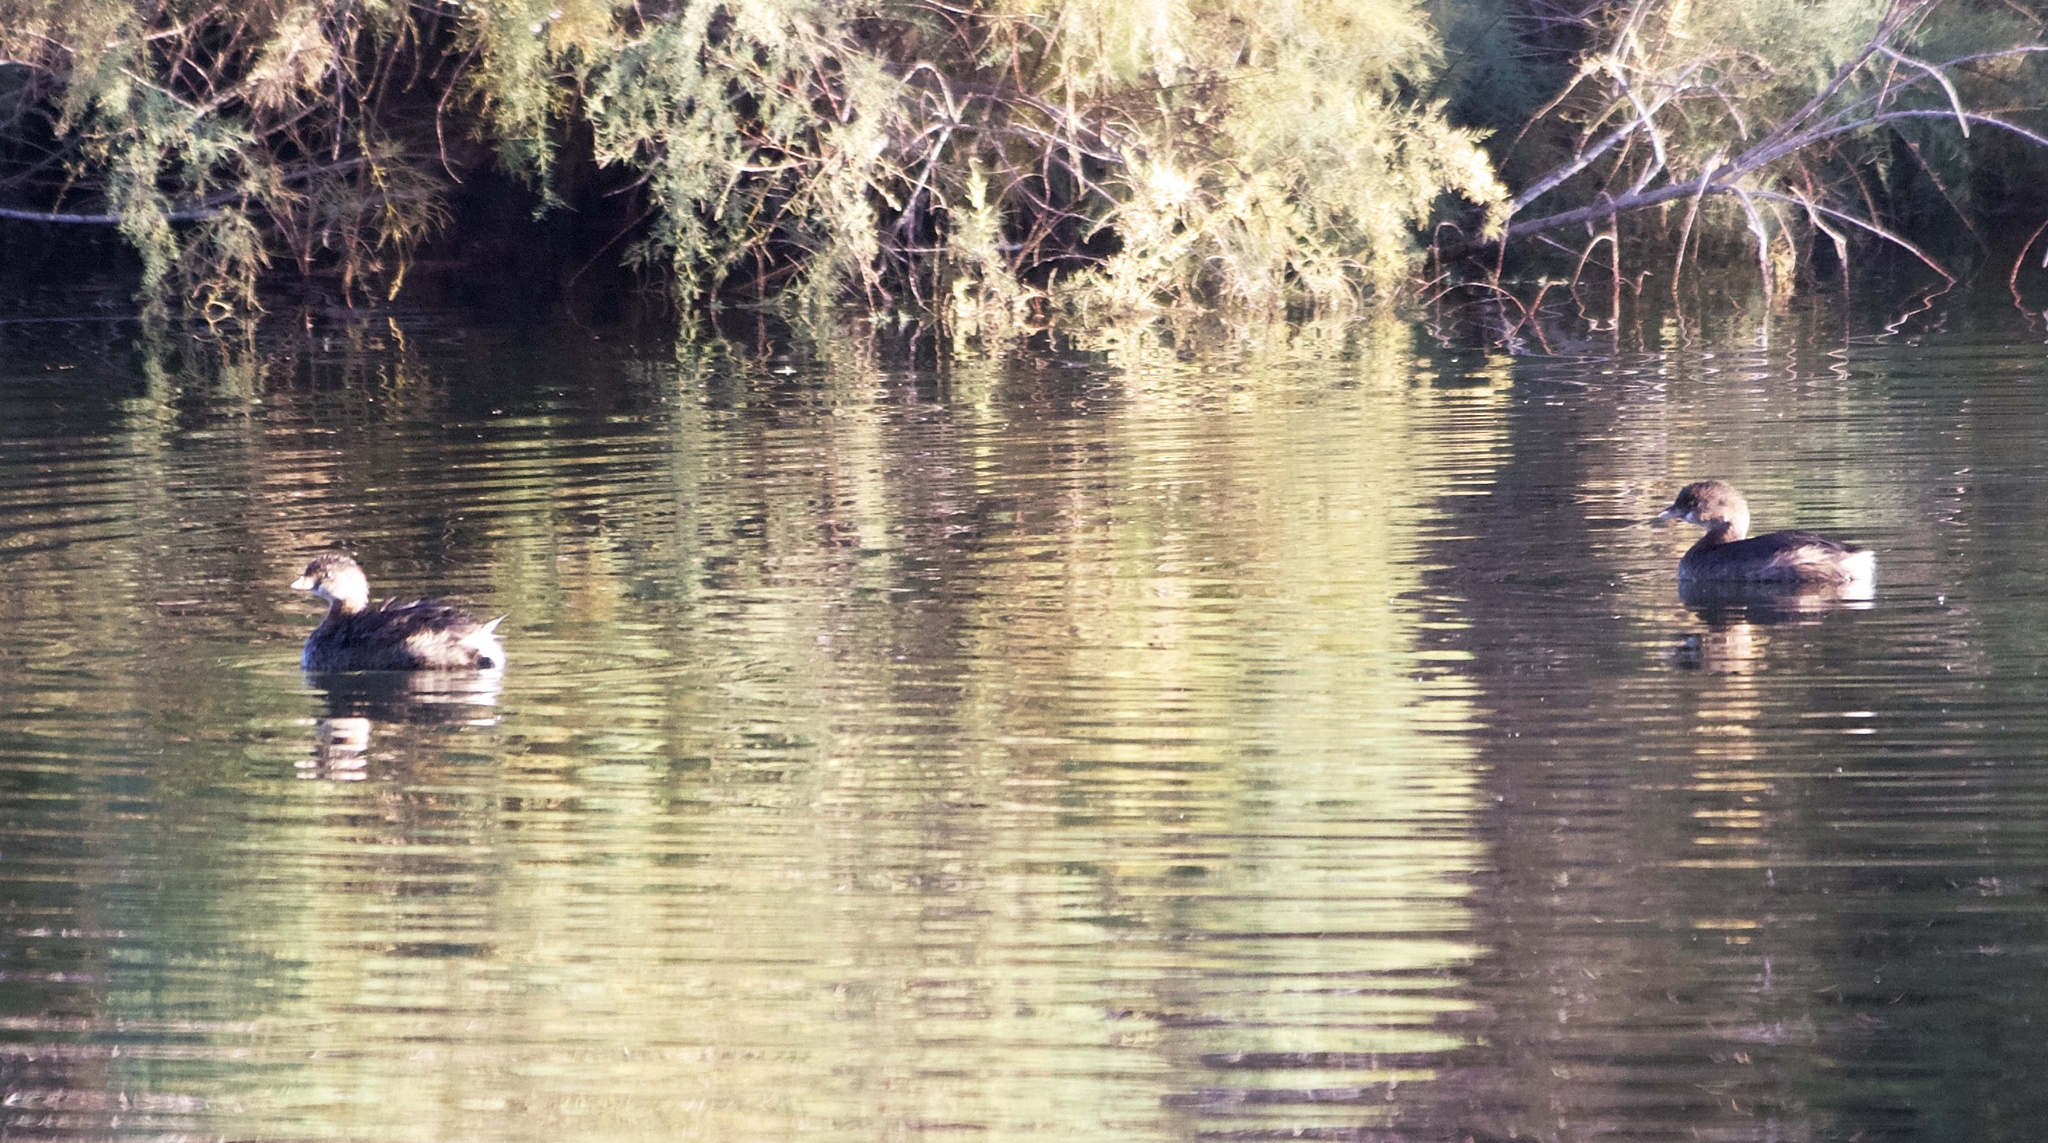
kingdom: Animalia
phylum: Chordata
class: Aves
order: Podicipediformes
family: Podicipedidae
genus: Podilymbus
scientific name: Podilymbus podiceps
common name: Pied-billed grebe
